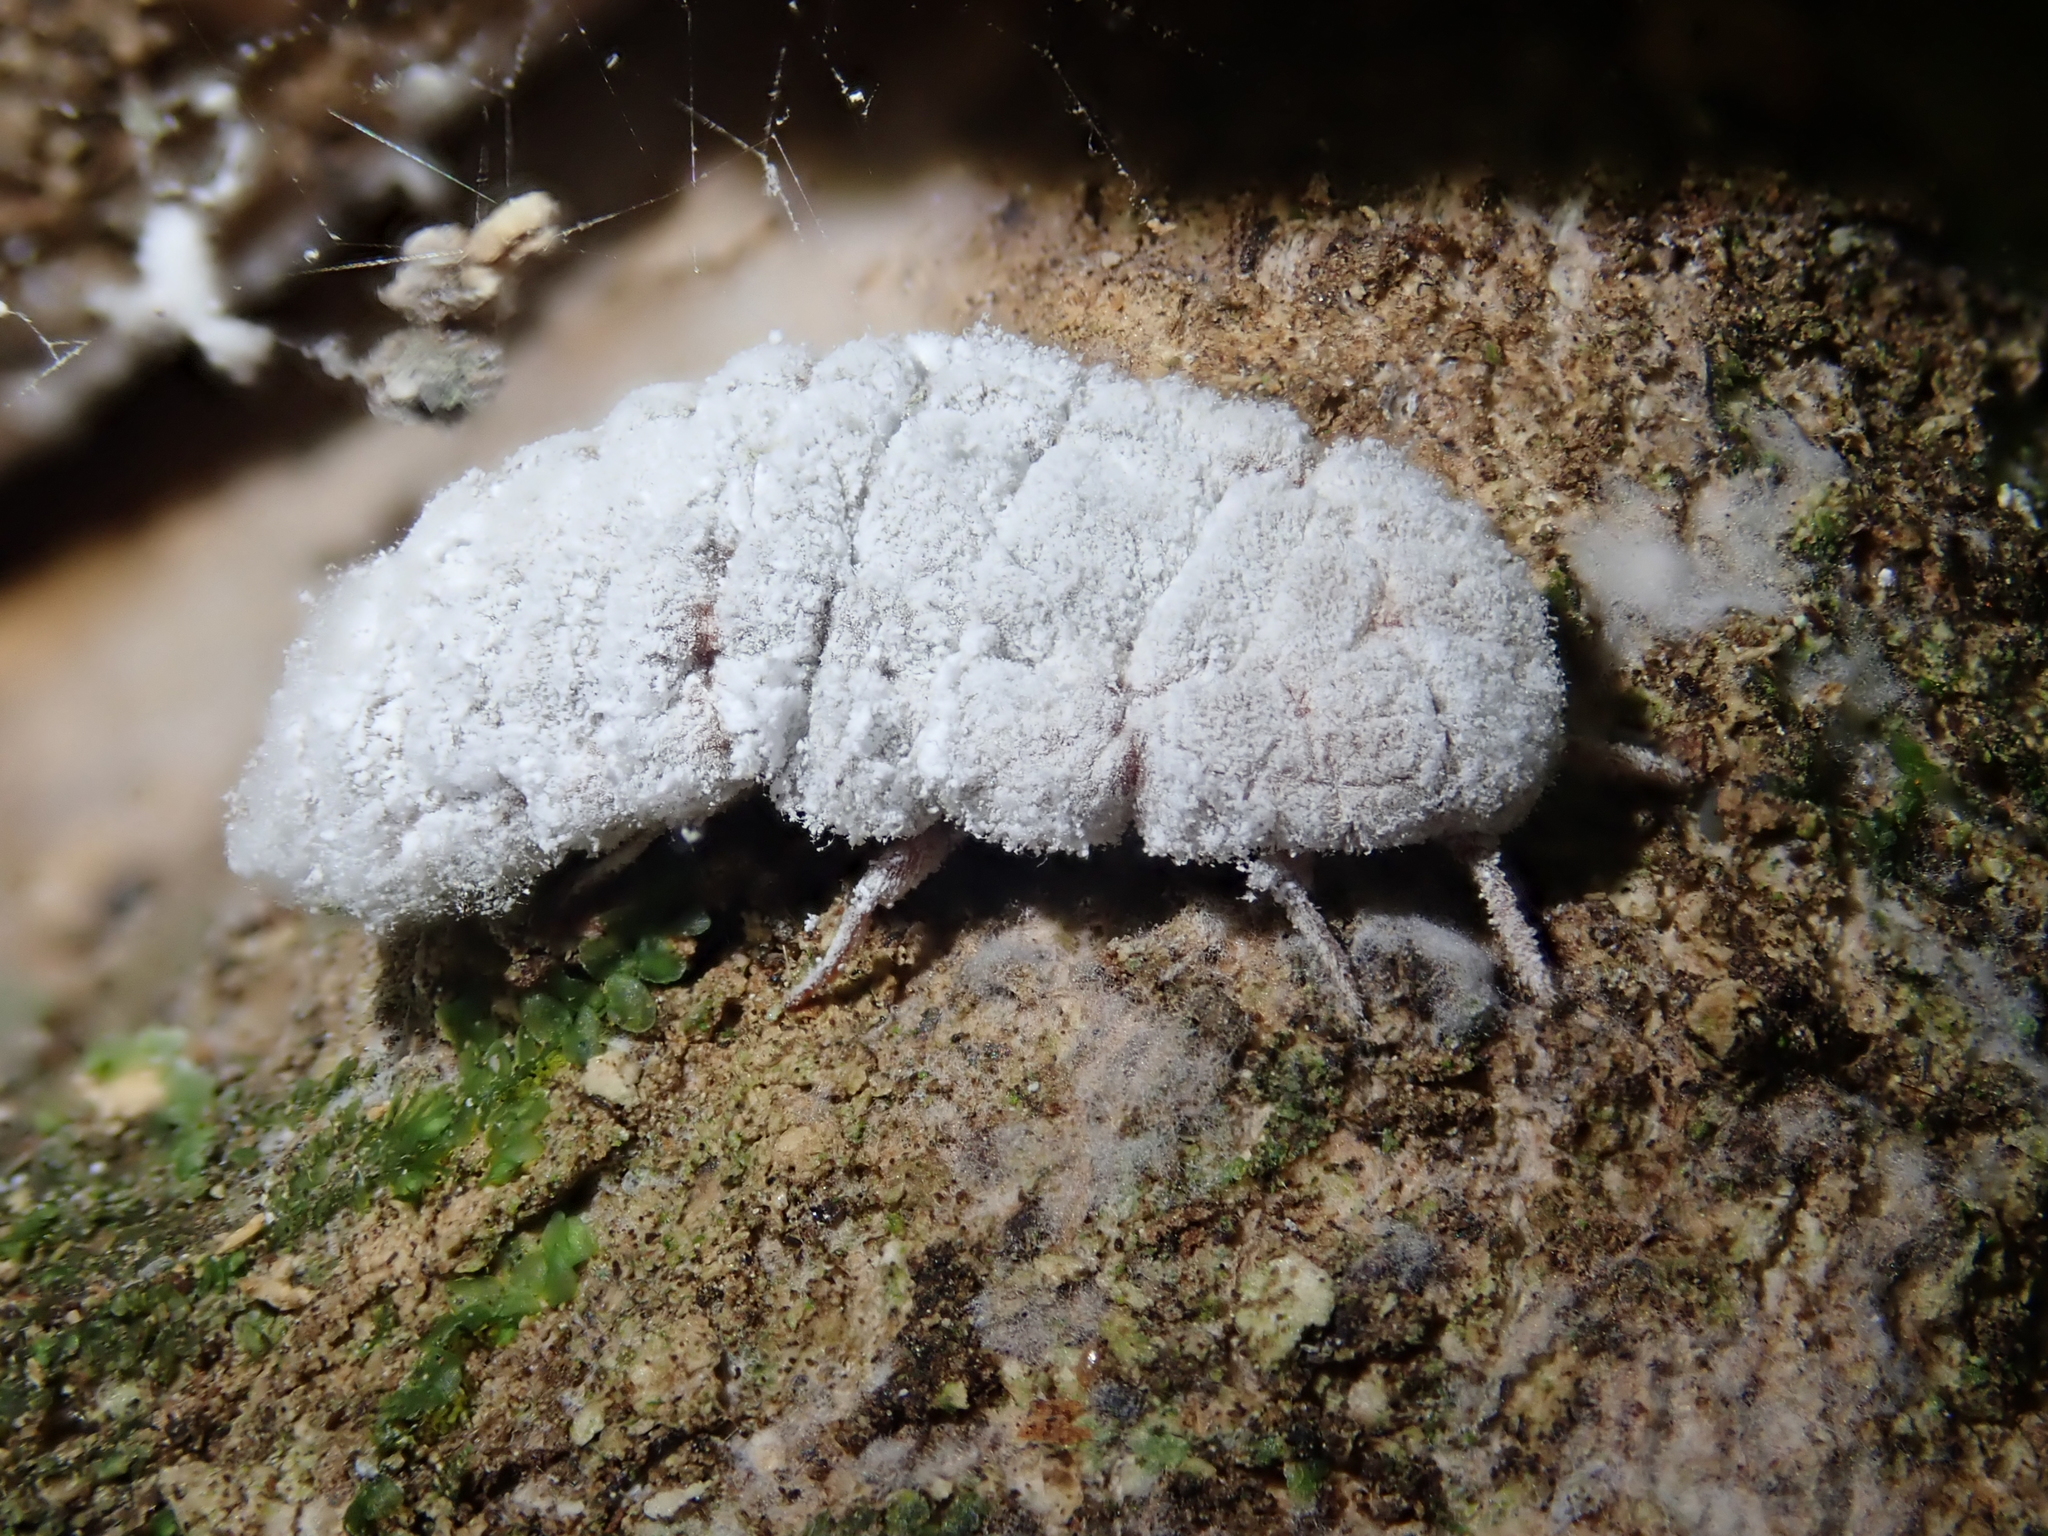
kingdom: Animalia
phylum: Arthropoda
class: Insecta
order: Hemiptera
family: Margarodidae
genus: Coelostomidia
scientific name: Coelostomidia zealandica
